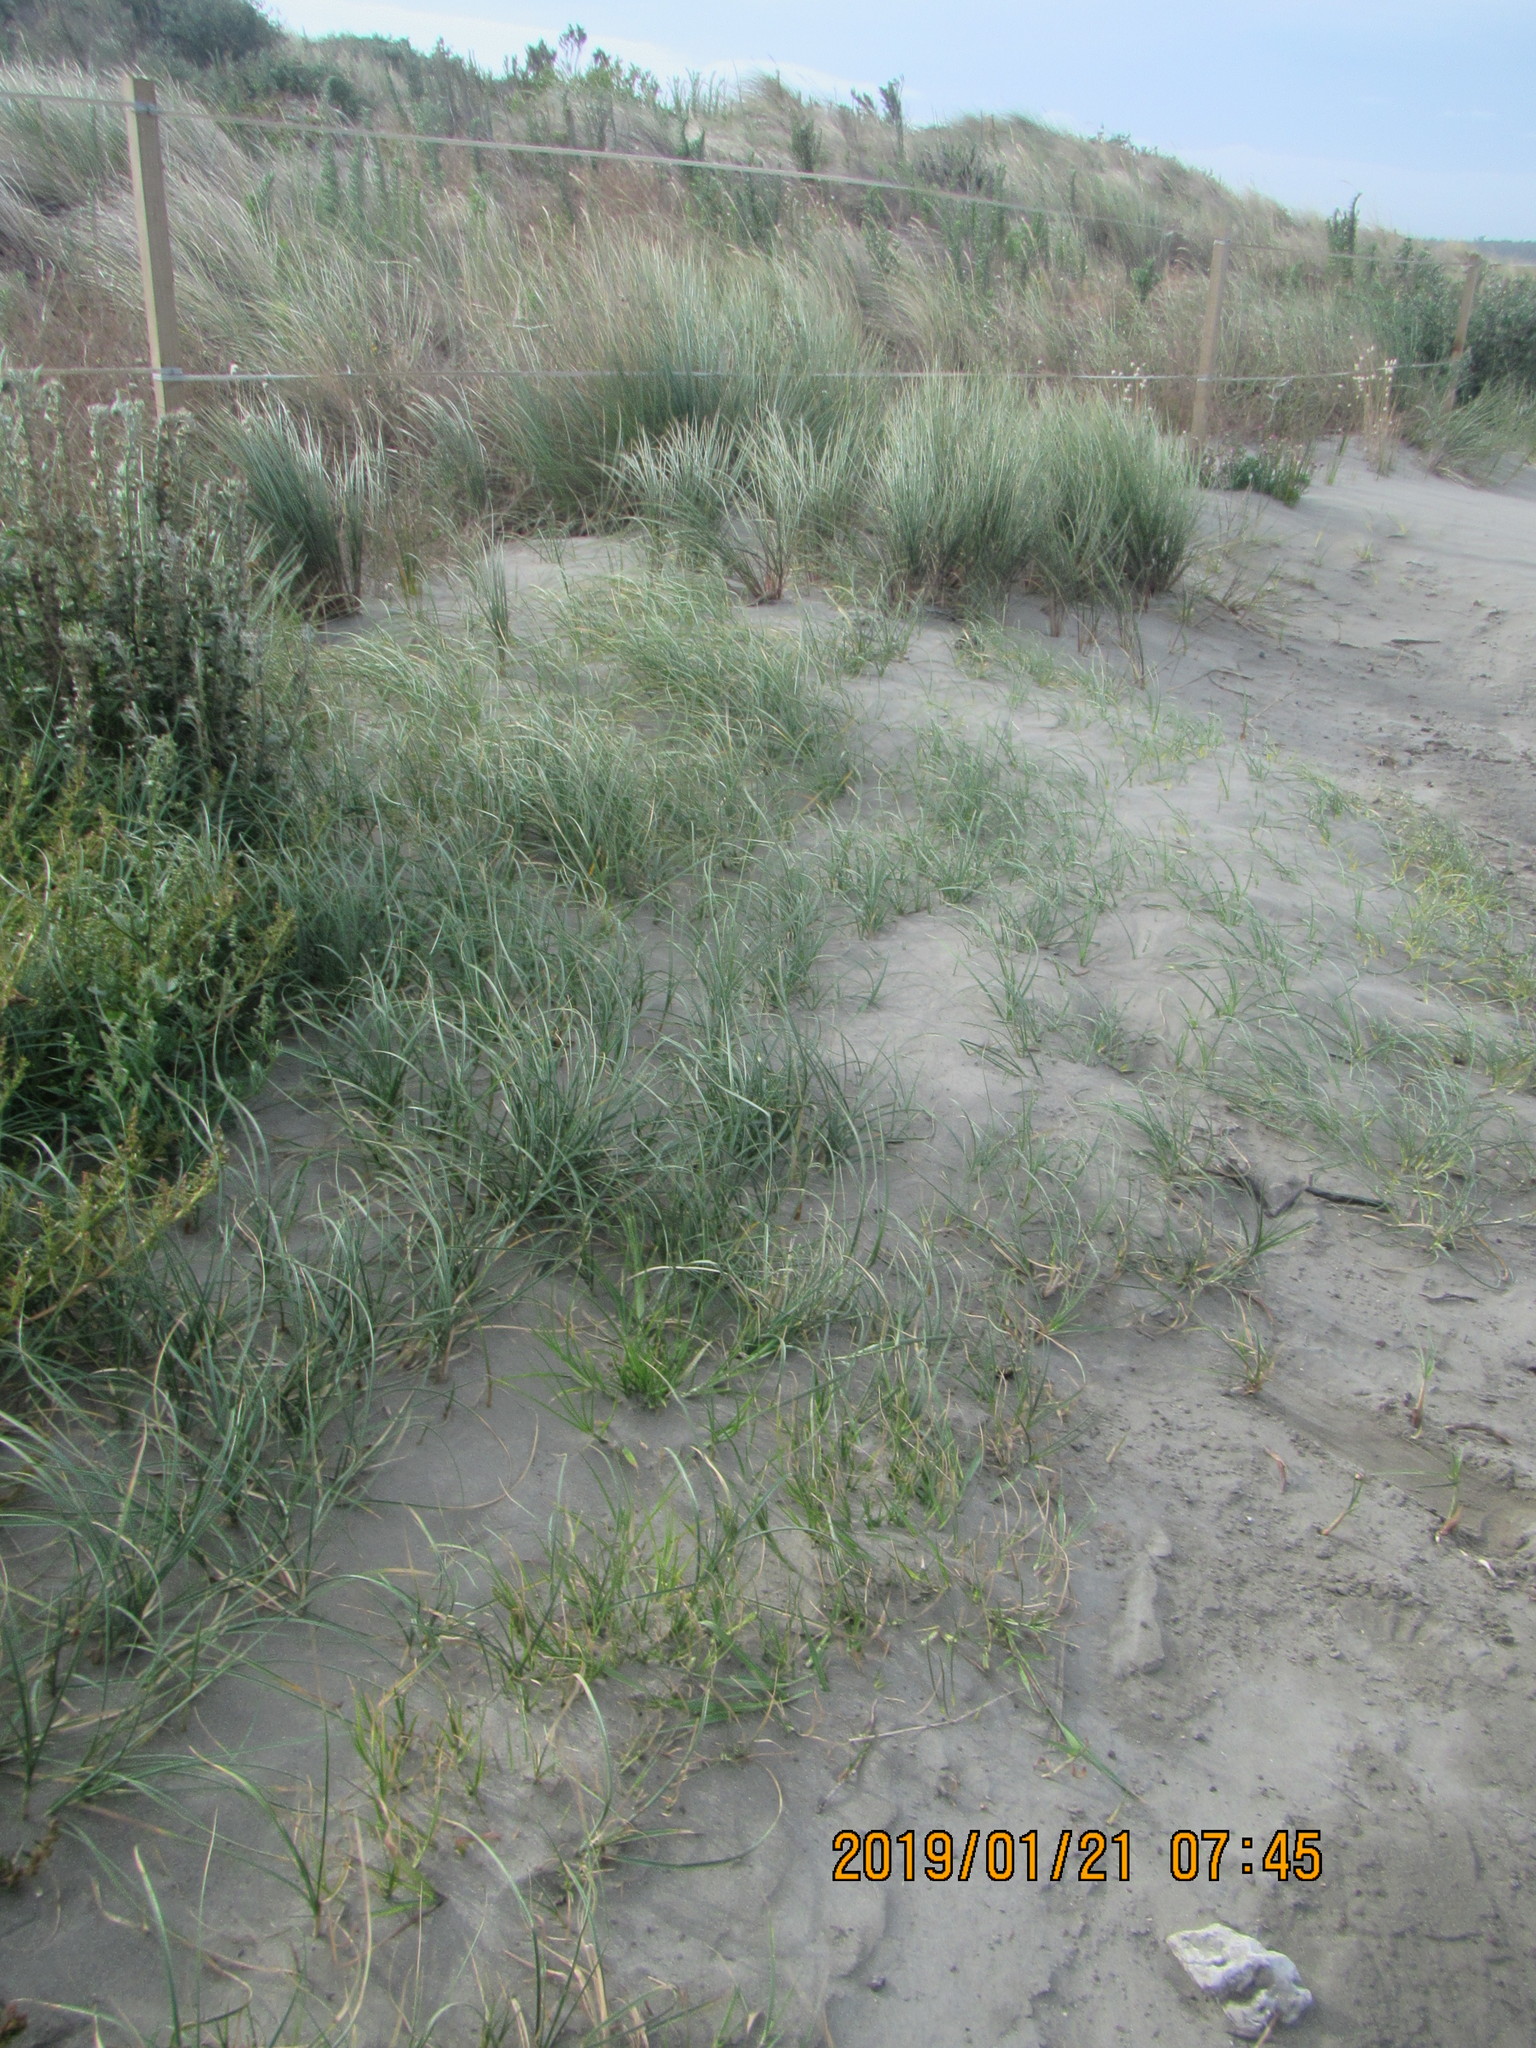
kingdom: Plantae
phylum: Tracheophyta
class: Liliopsida
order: Poales
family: Cyperaceae
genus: Carex
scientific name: Carex pumila
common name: Dwarf sedge
